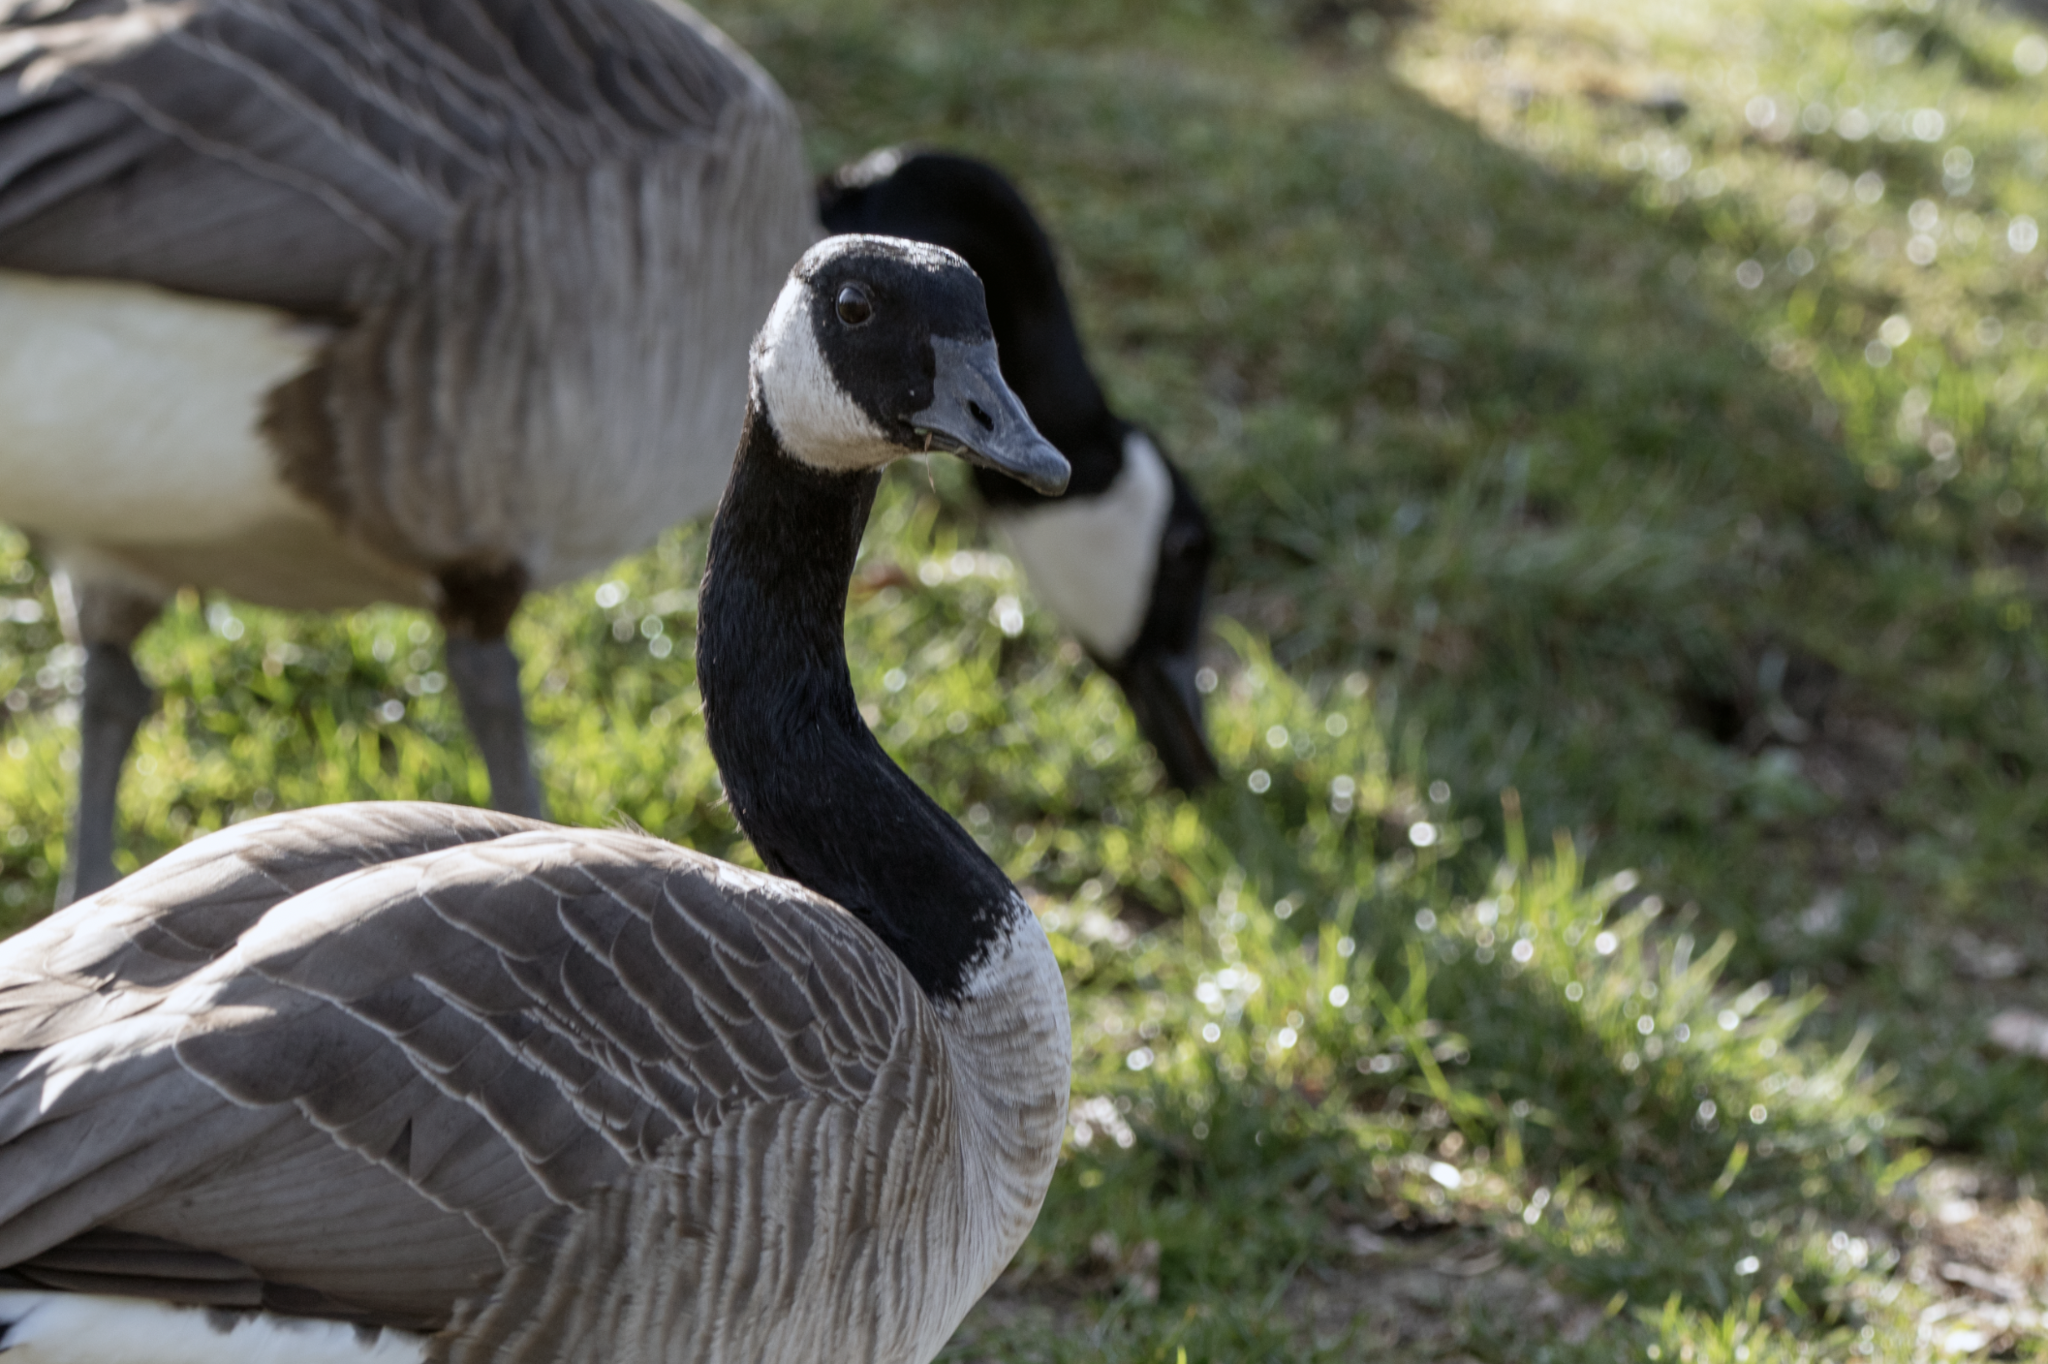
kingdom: Animalia
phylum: Chordata
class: Aves
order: Anseriformes
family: Anatidae
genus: Branta
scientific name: Branta canadensis
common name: Canada goose
